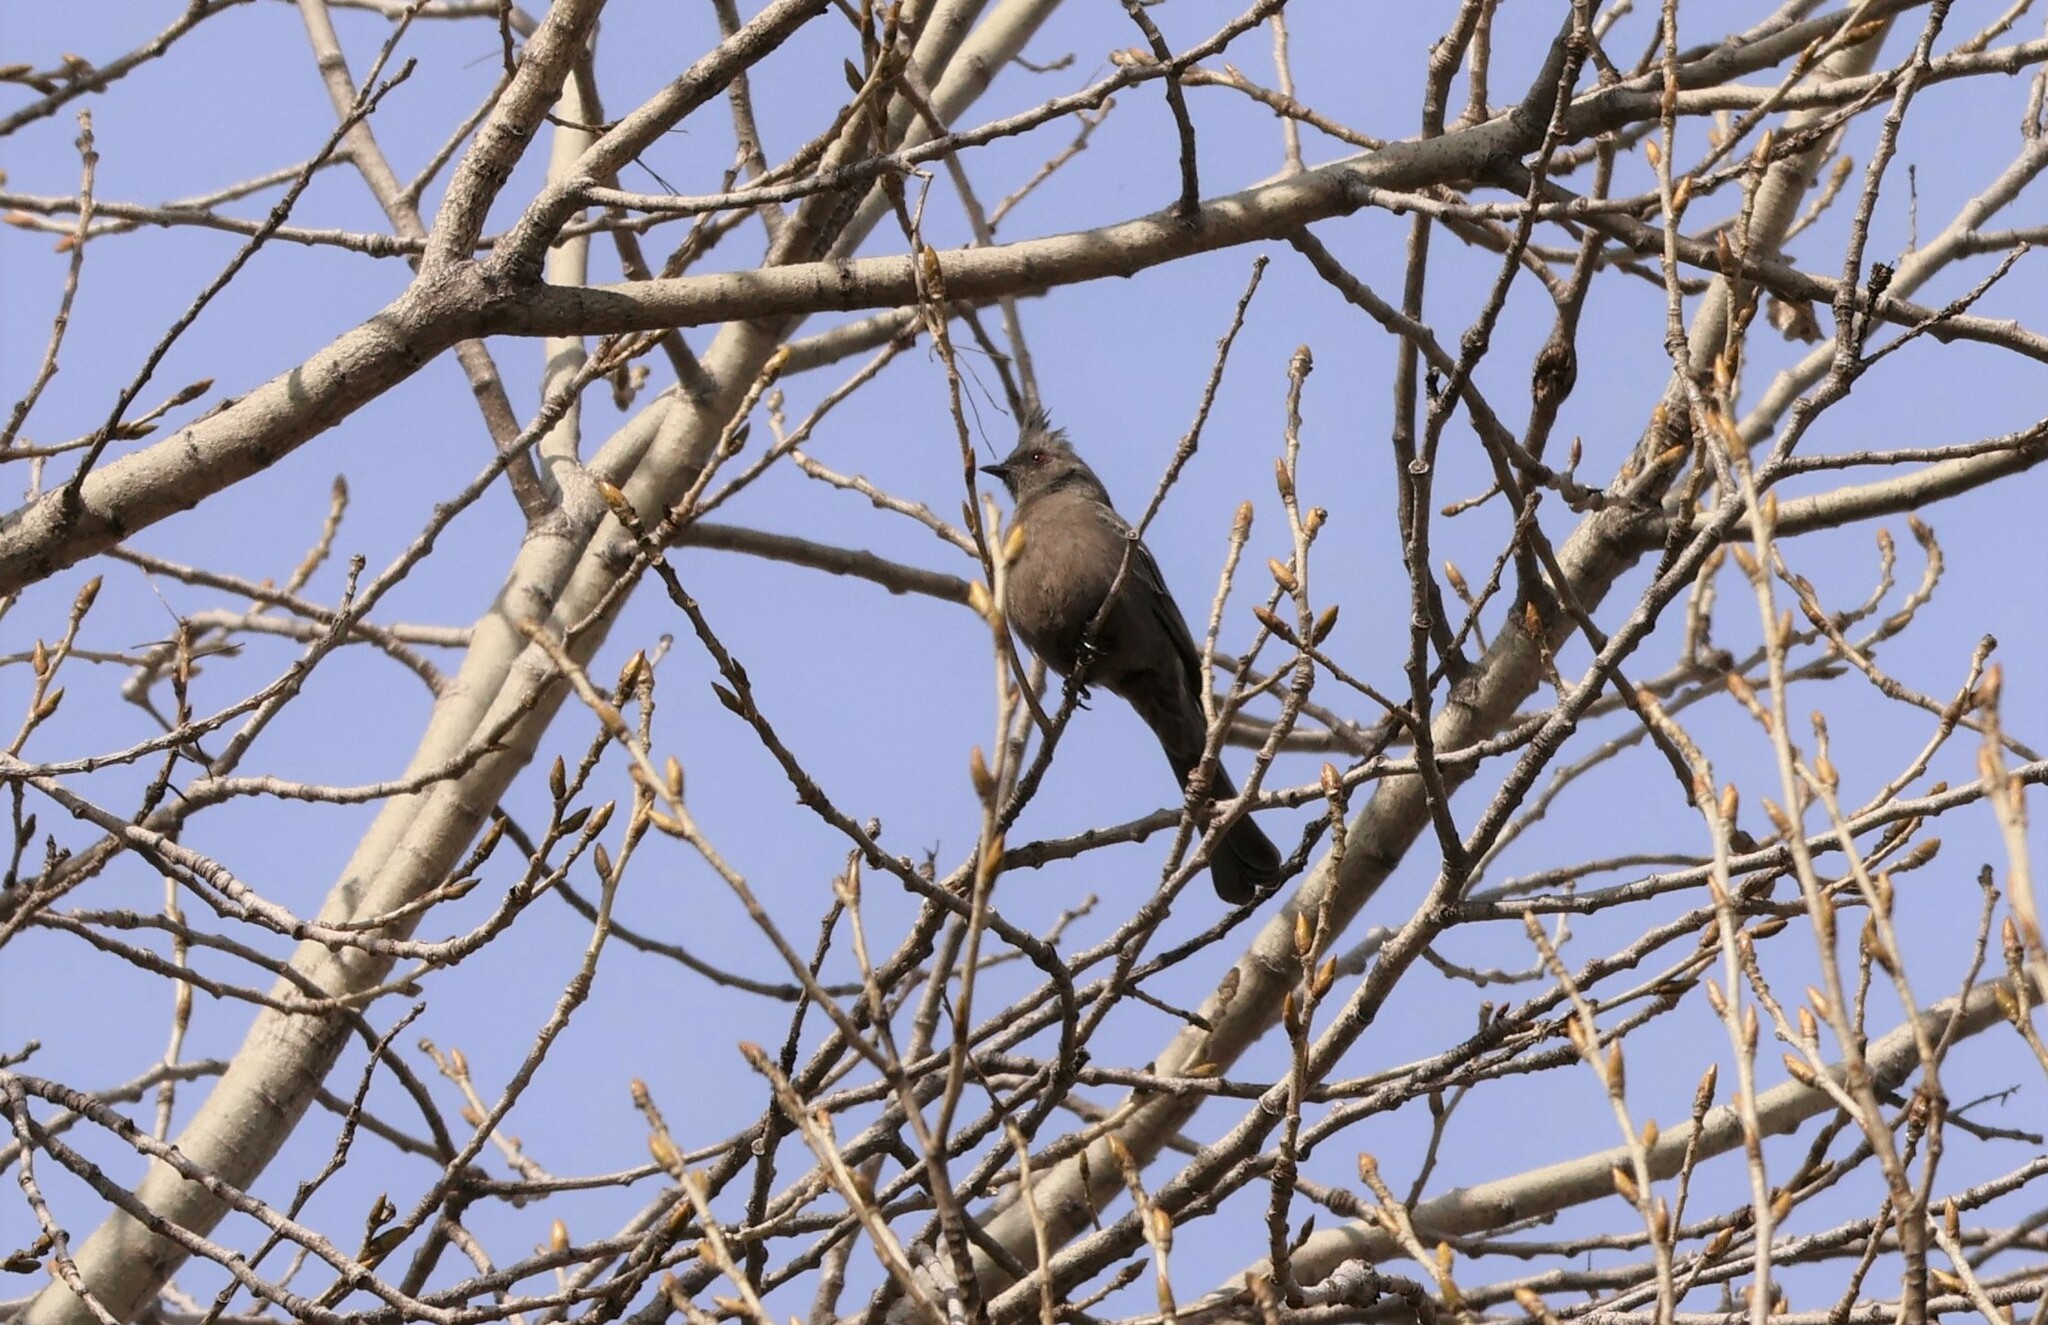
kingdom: Animalia
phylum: Chordata
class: Aves
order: Passeriformes
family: Ptilogonatidae
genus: Phainopepla
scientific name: Phainopepla nitens
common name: Phainopepla
